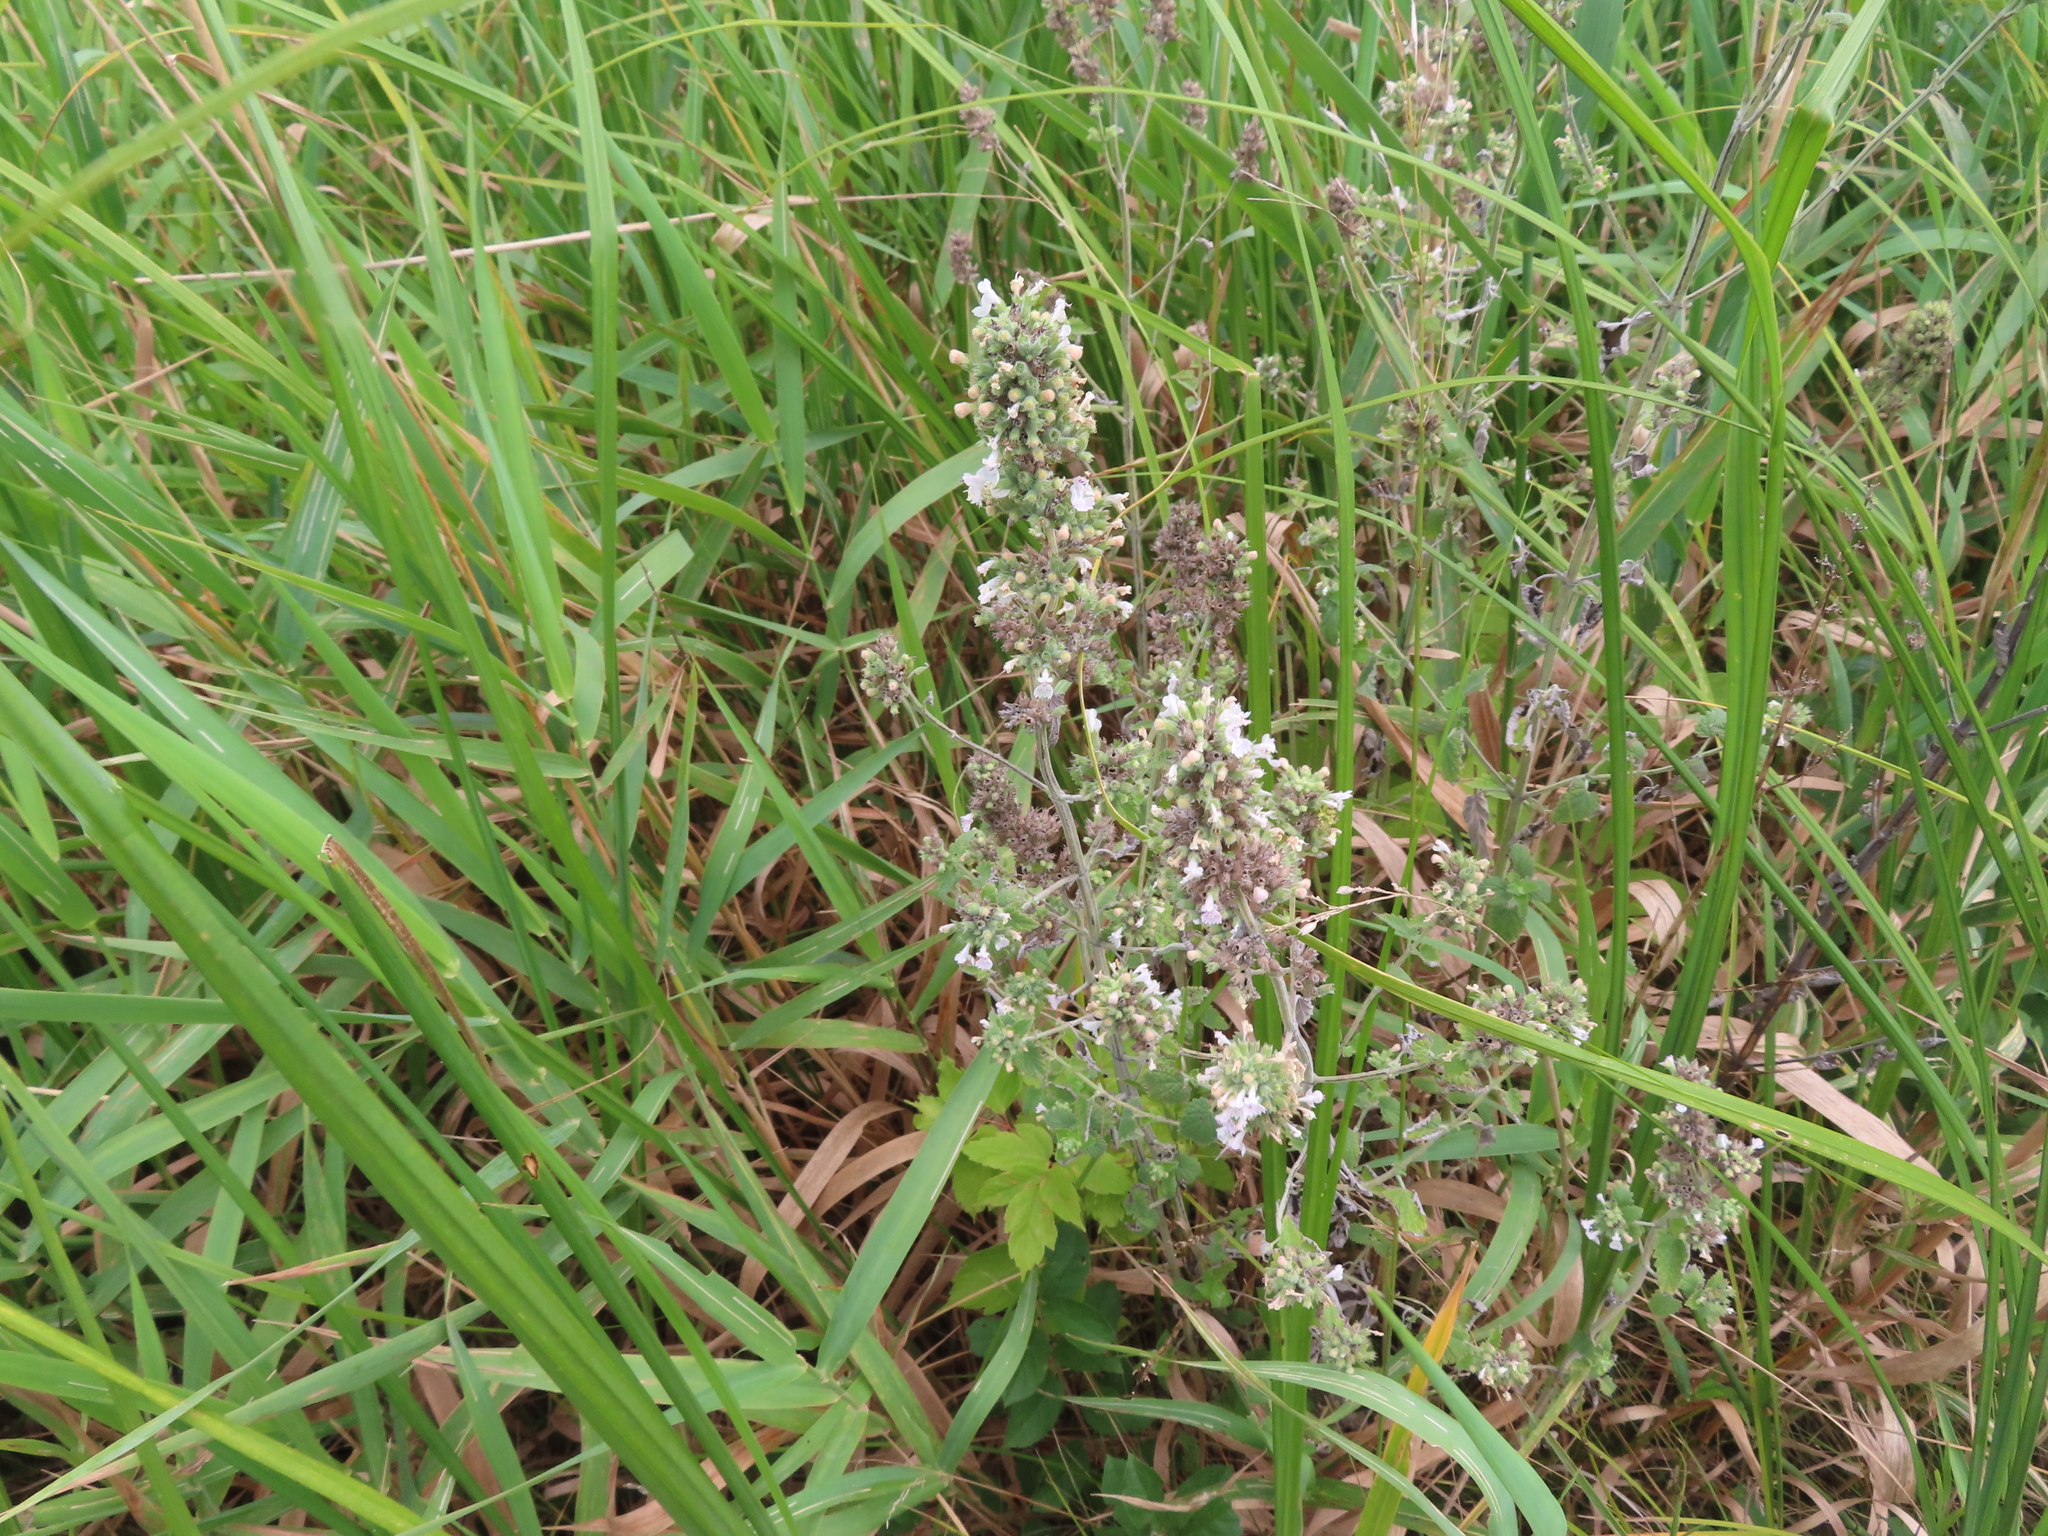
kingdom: Plantae
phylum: Tracheophyta
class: Magnoliopsida
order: Lamiales
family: Lamiaceae
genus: Nepeta
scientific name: Nepeta cataria
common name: Catnip
